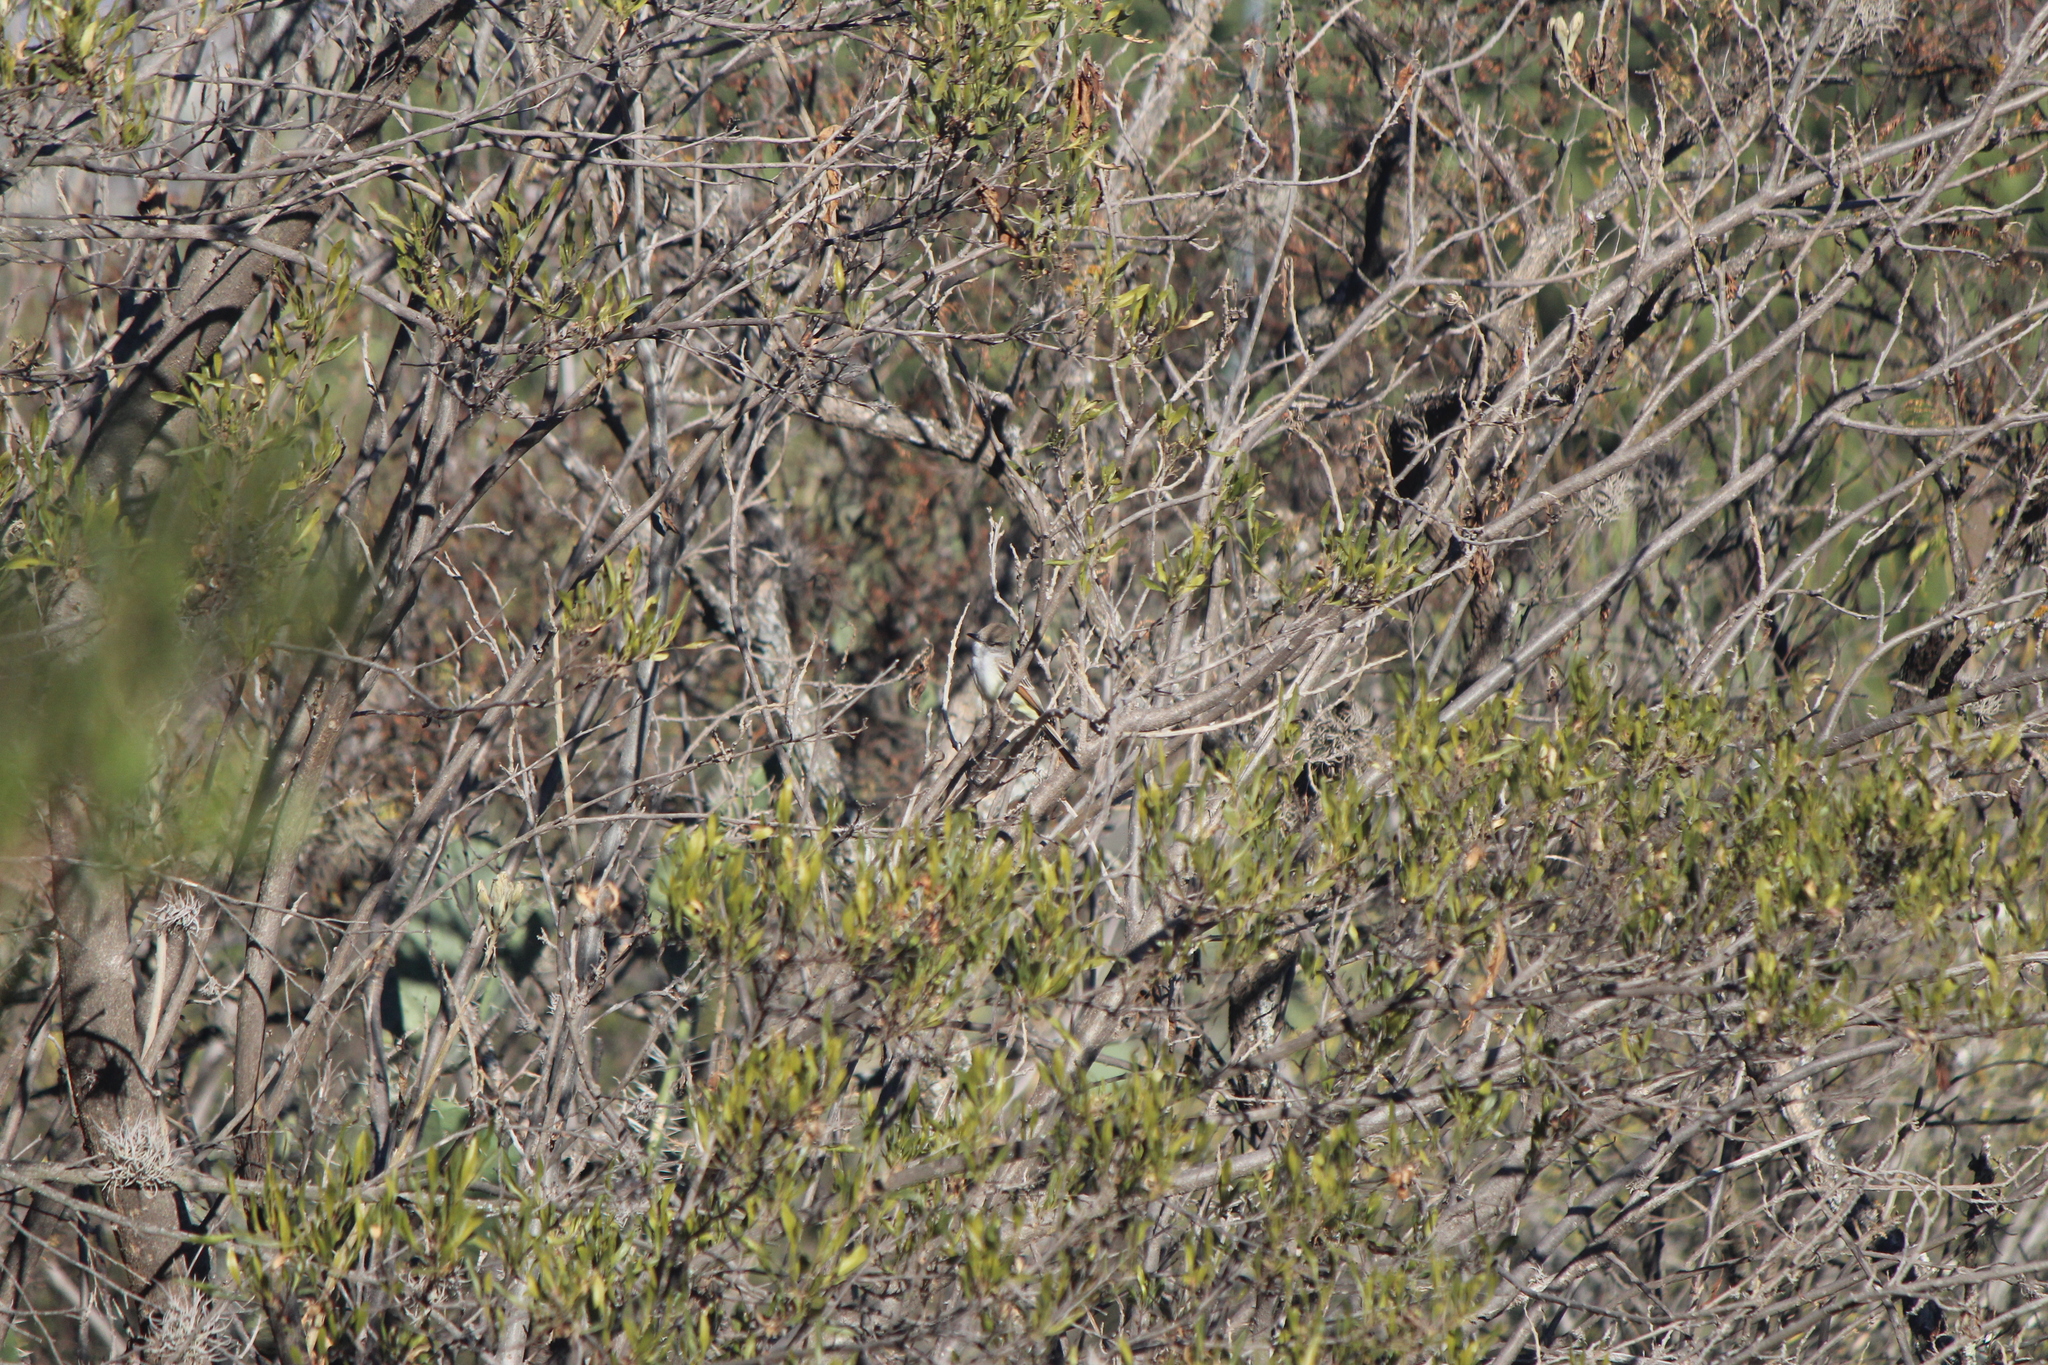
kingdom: Animalia
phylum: Chordata
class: Aves
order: Passeriformes
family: Tyrannidae
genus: Myiarchus
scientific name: Myiarchus cinerascens
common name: Ash-throated flycatcher
